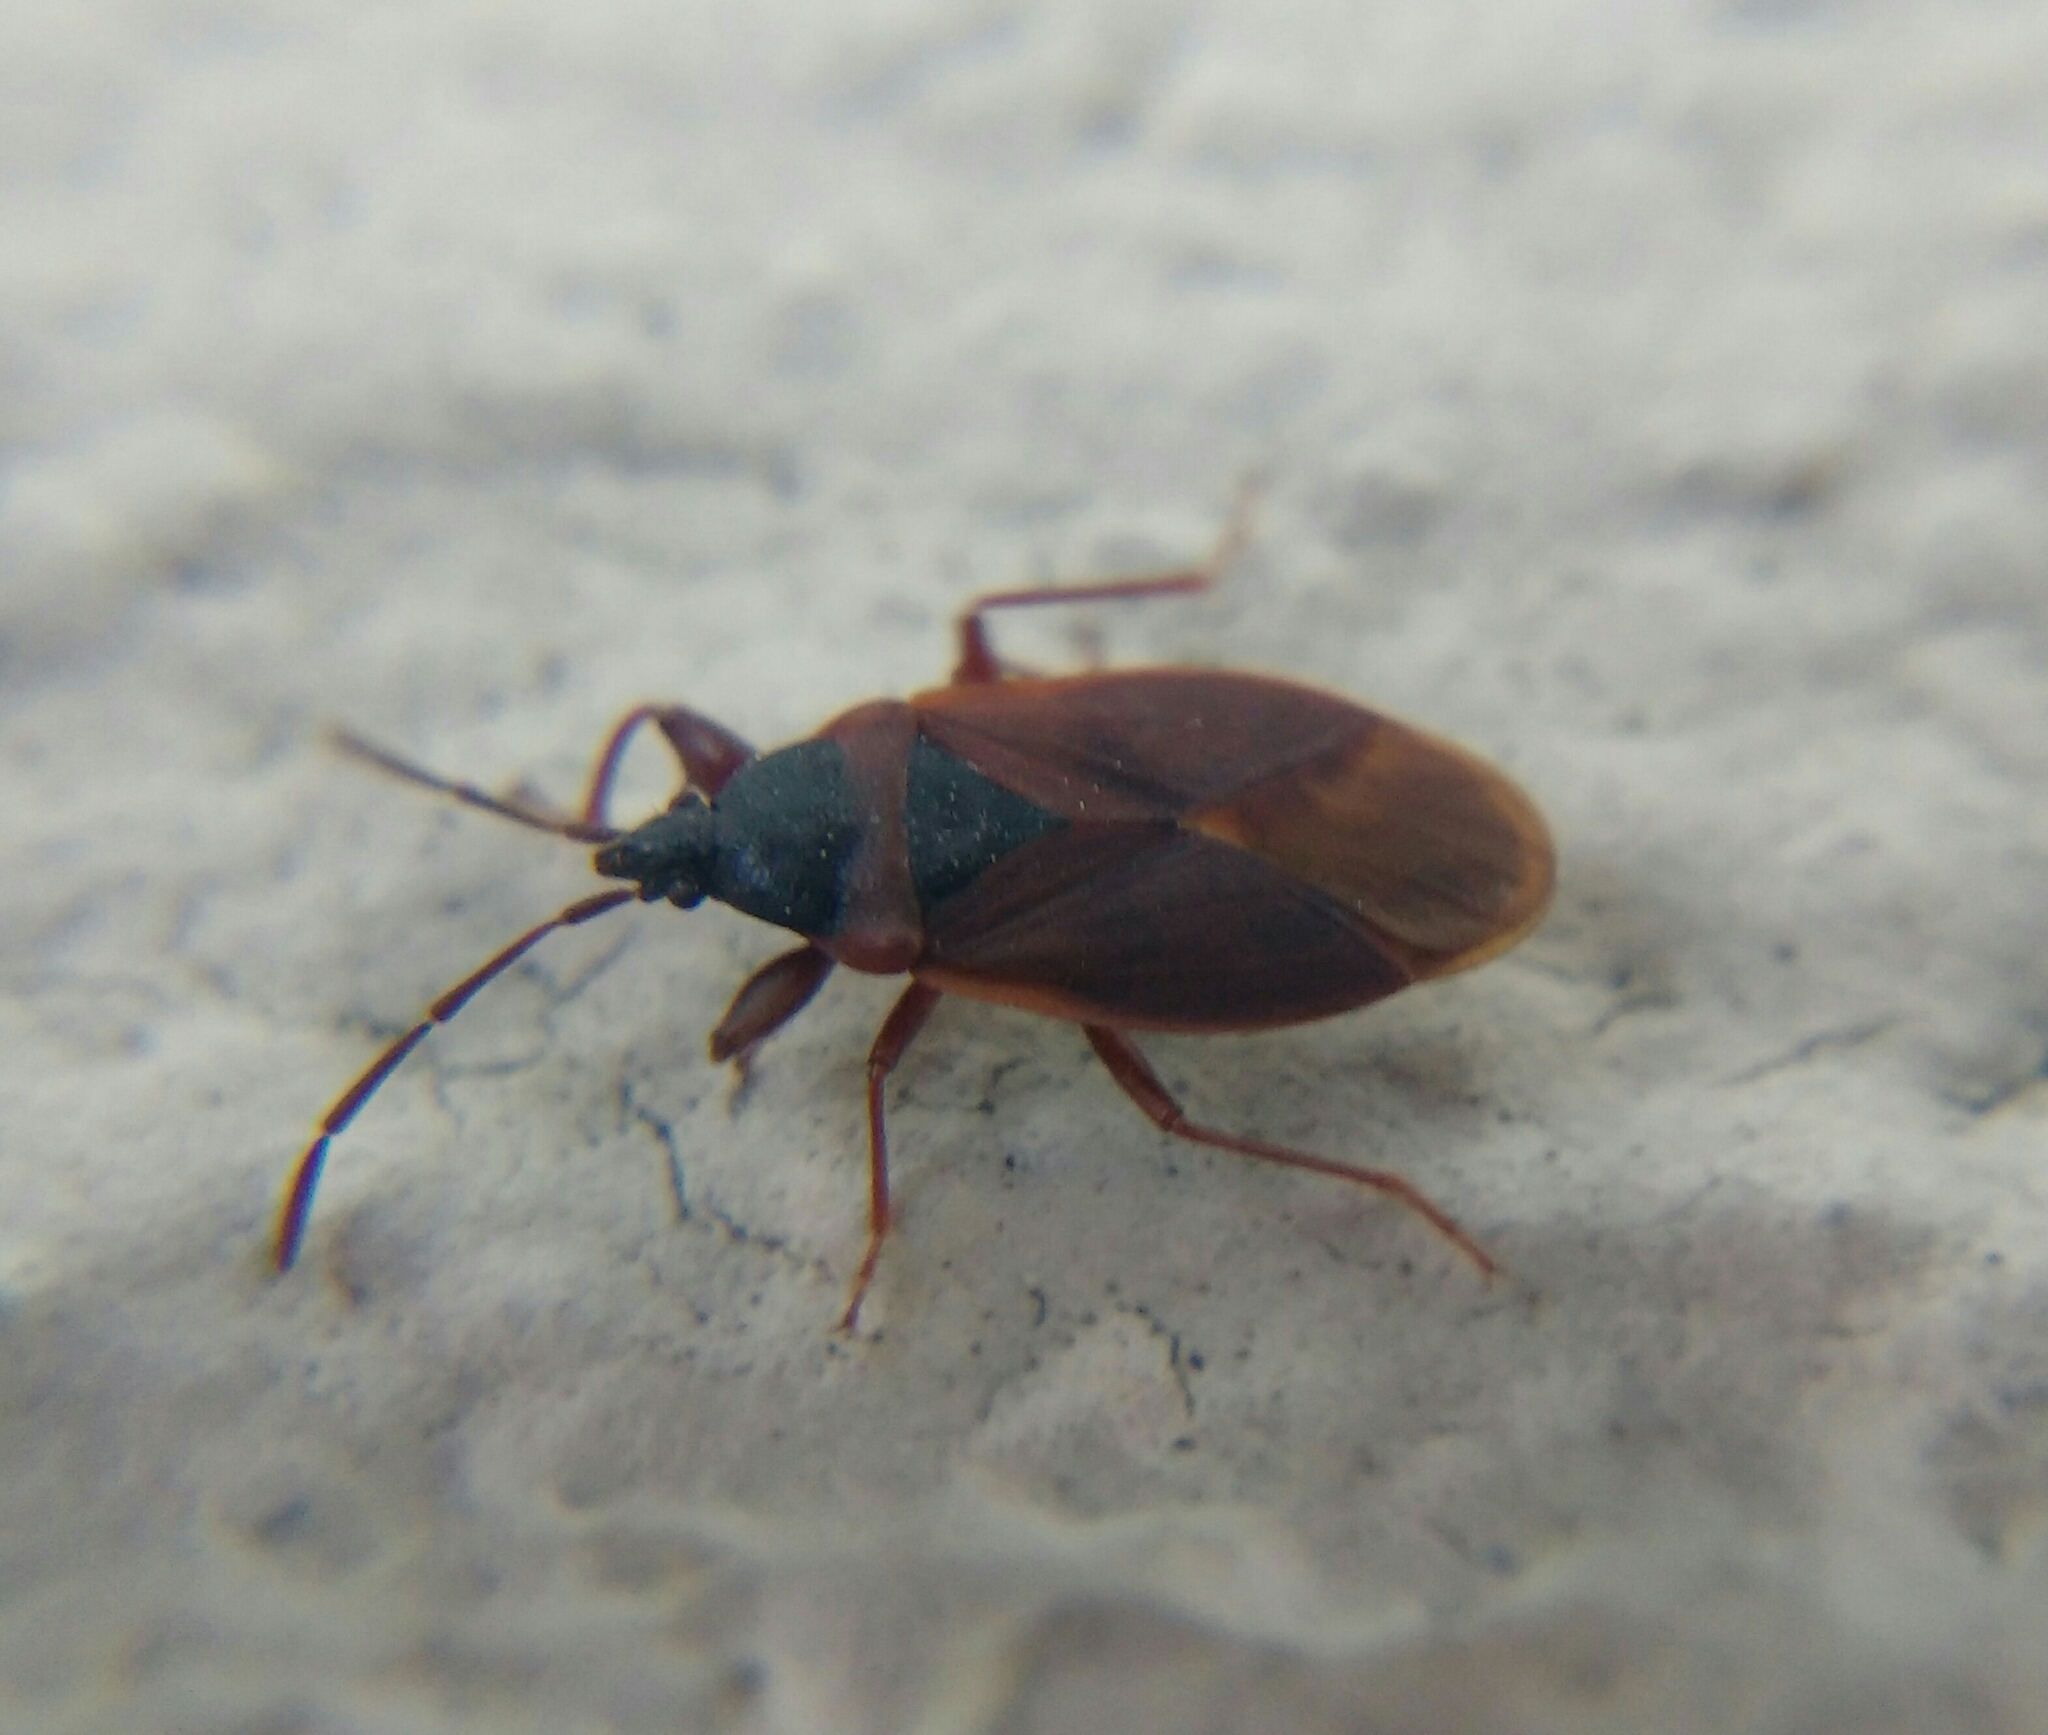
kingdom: Animalia
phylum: Arthropoda
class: Insecta
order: Hemiptera
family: Rhyparochromidae
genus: Gastrodes
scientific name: Gastrodes grossipes
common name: Pine cone bug
